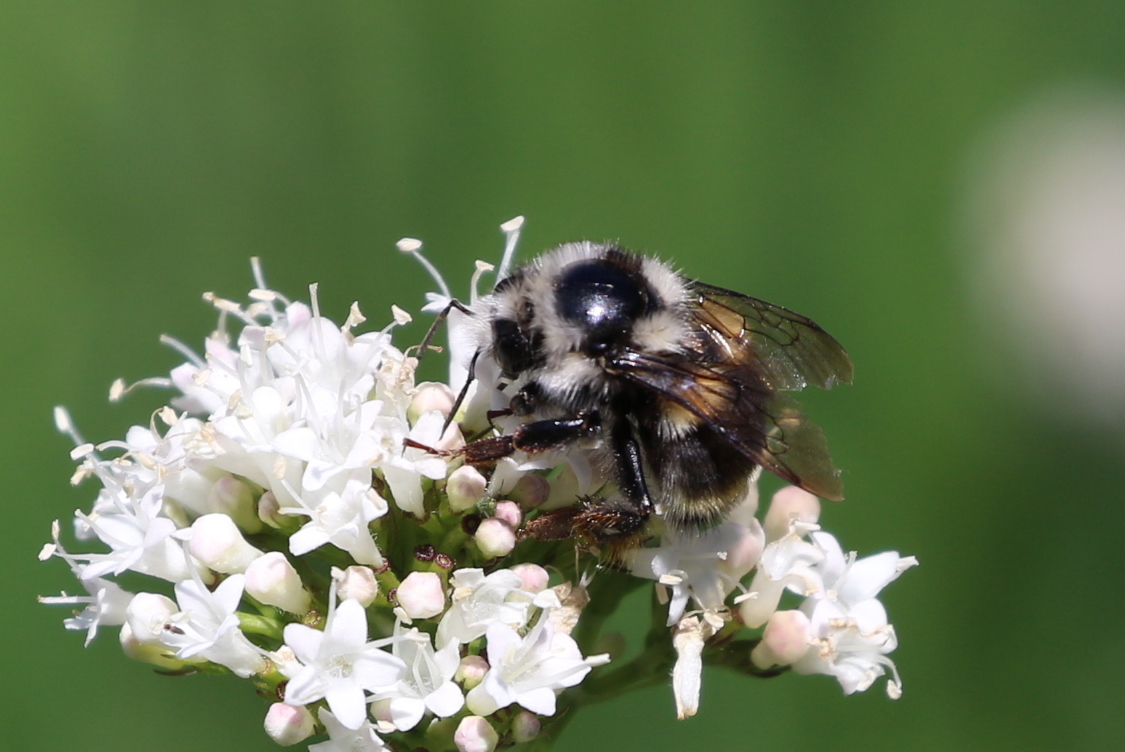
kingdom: Animalia
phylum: Arthropoda
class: Insecta
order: Hymenoptera
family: Apidae
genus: Bombus
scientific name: Bombus vancouverensis
